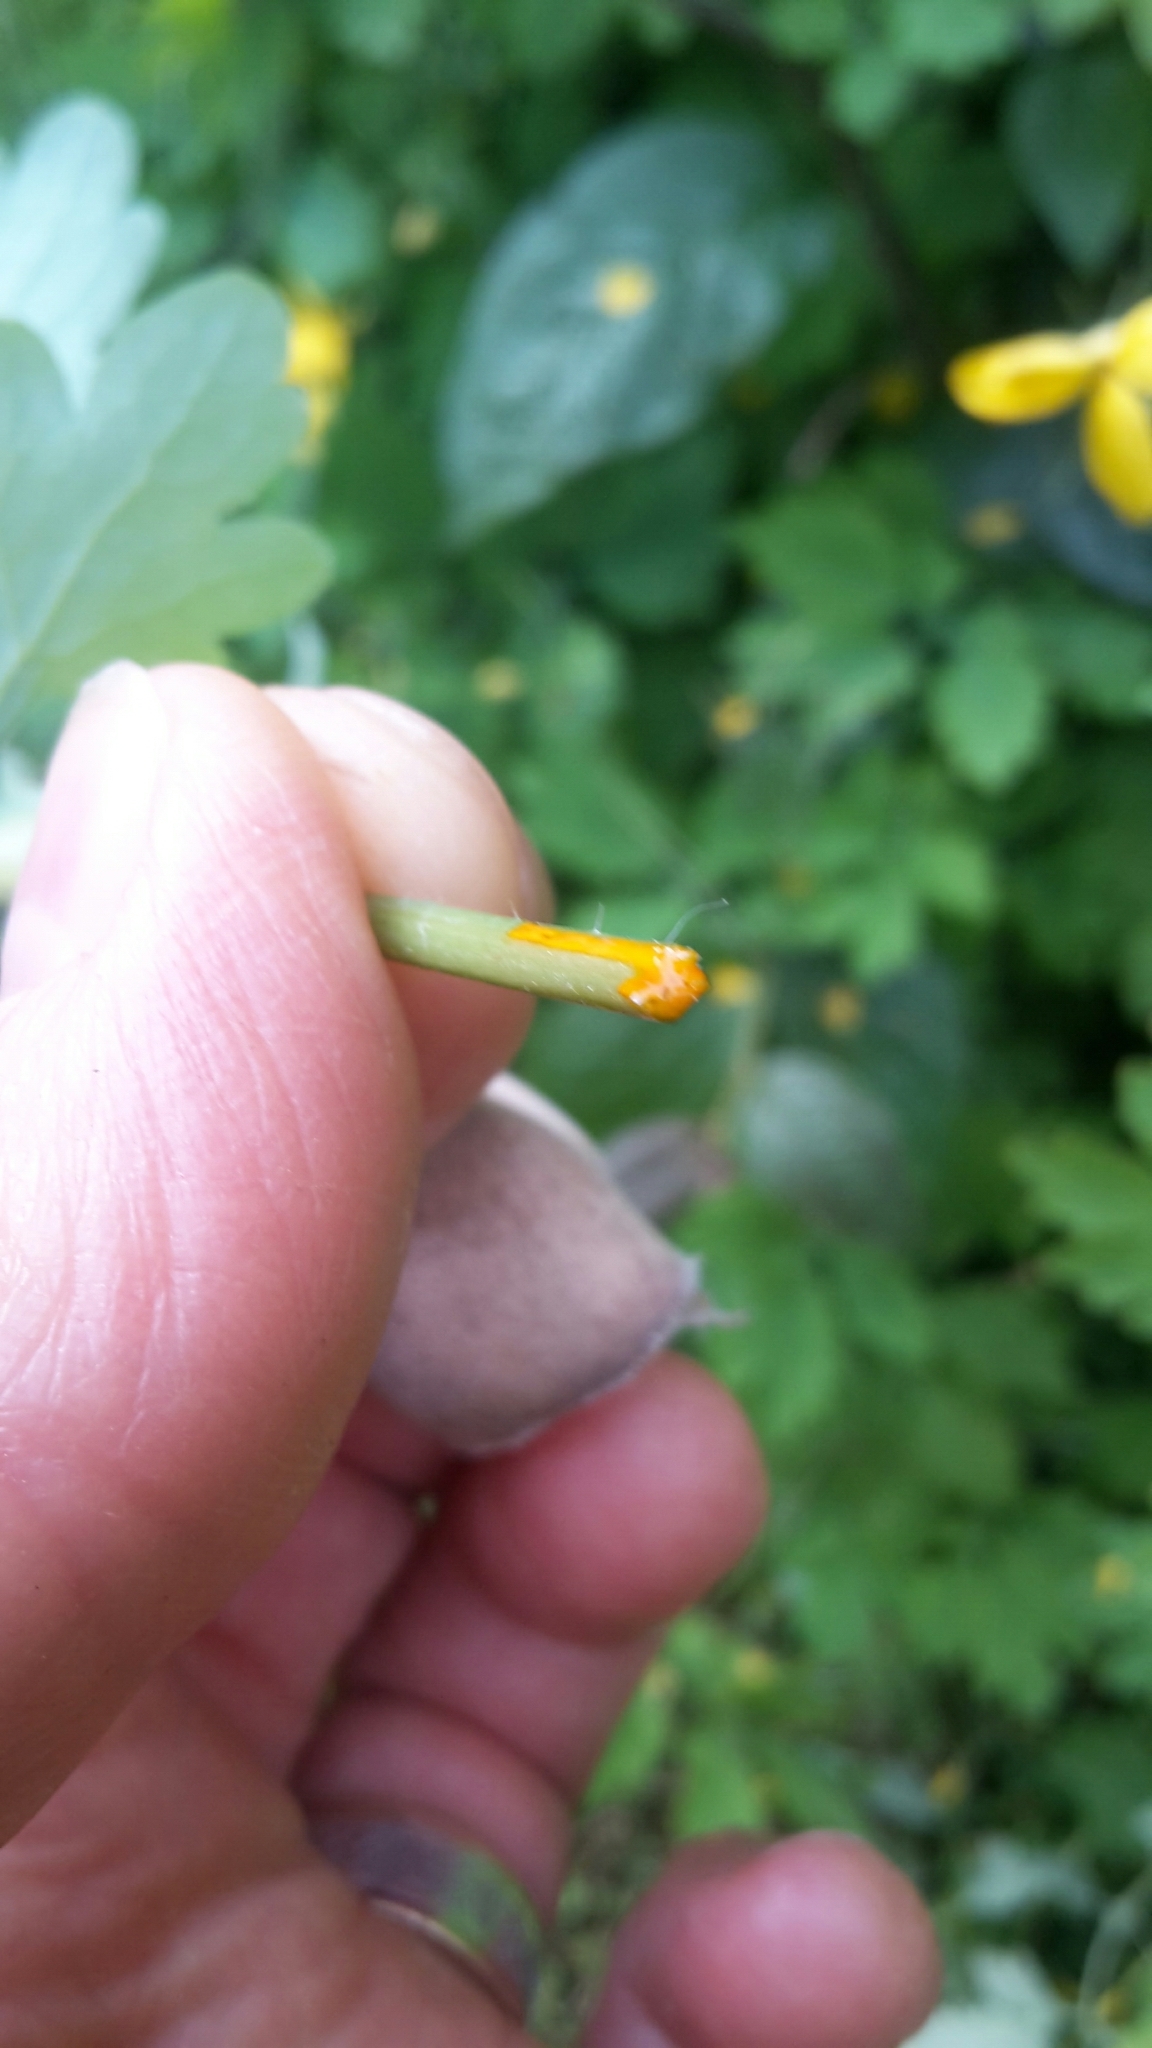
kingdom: Plantae
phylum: Tracheophyta
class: Magnoliopsida
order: Ranunculales
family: Papaveraceae
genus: Chelidonium
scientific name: Chelidonium majus
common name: Greater celandine
